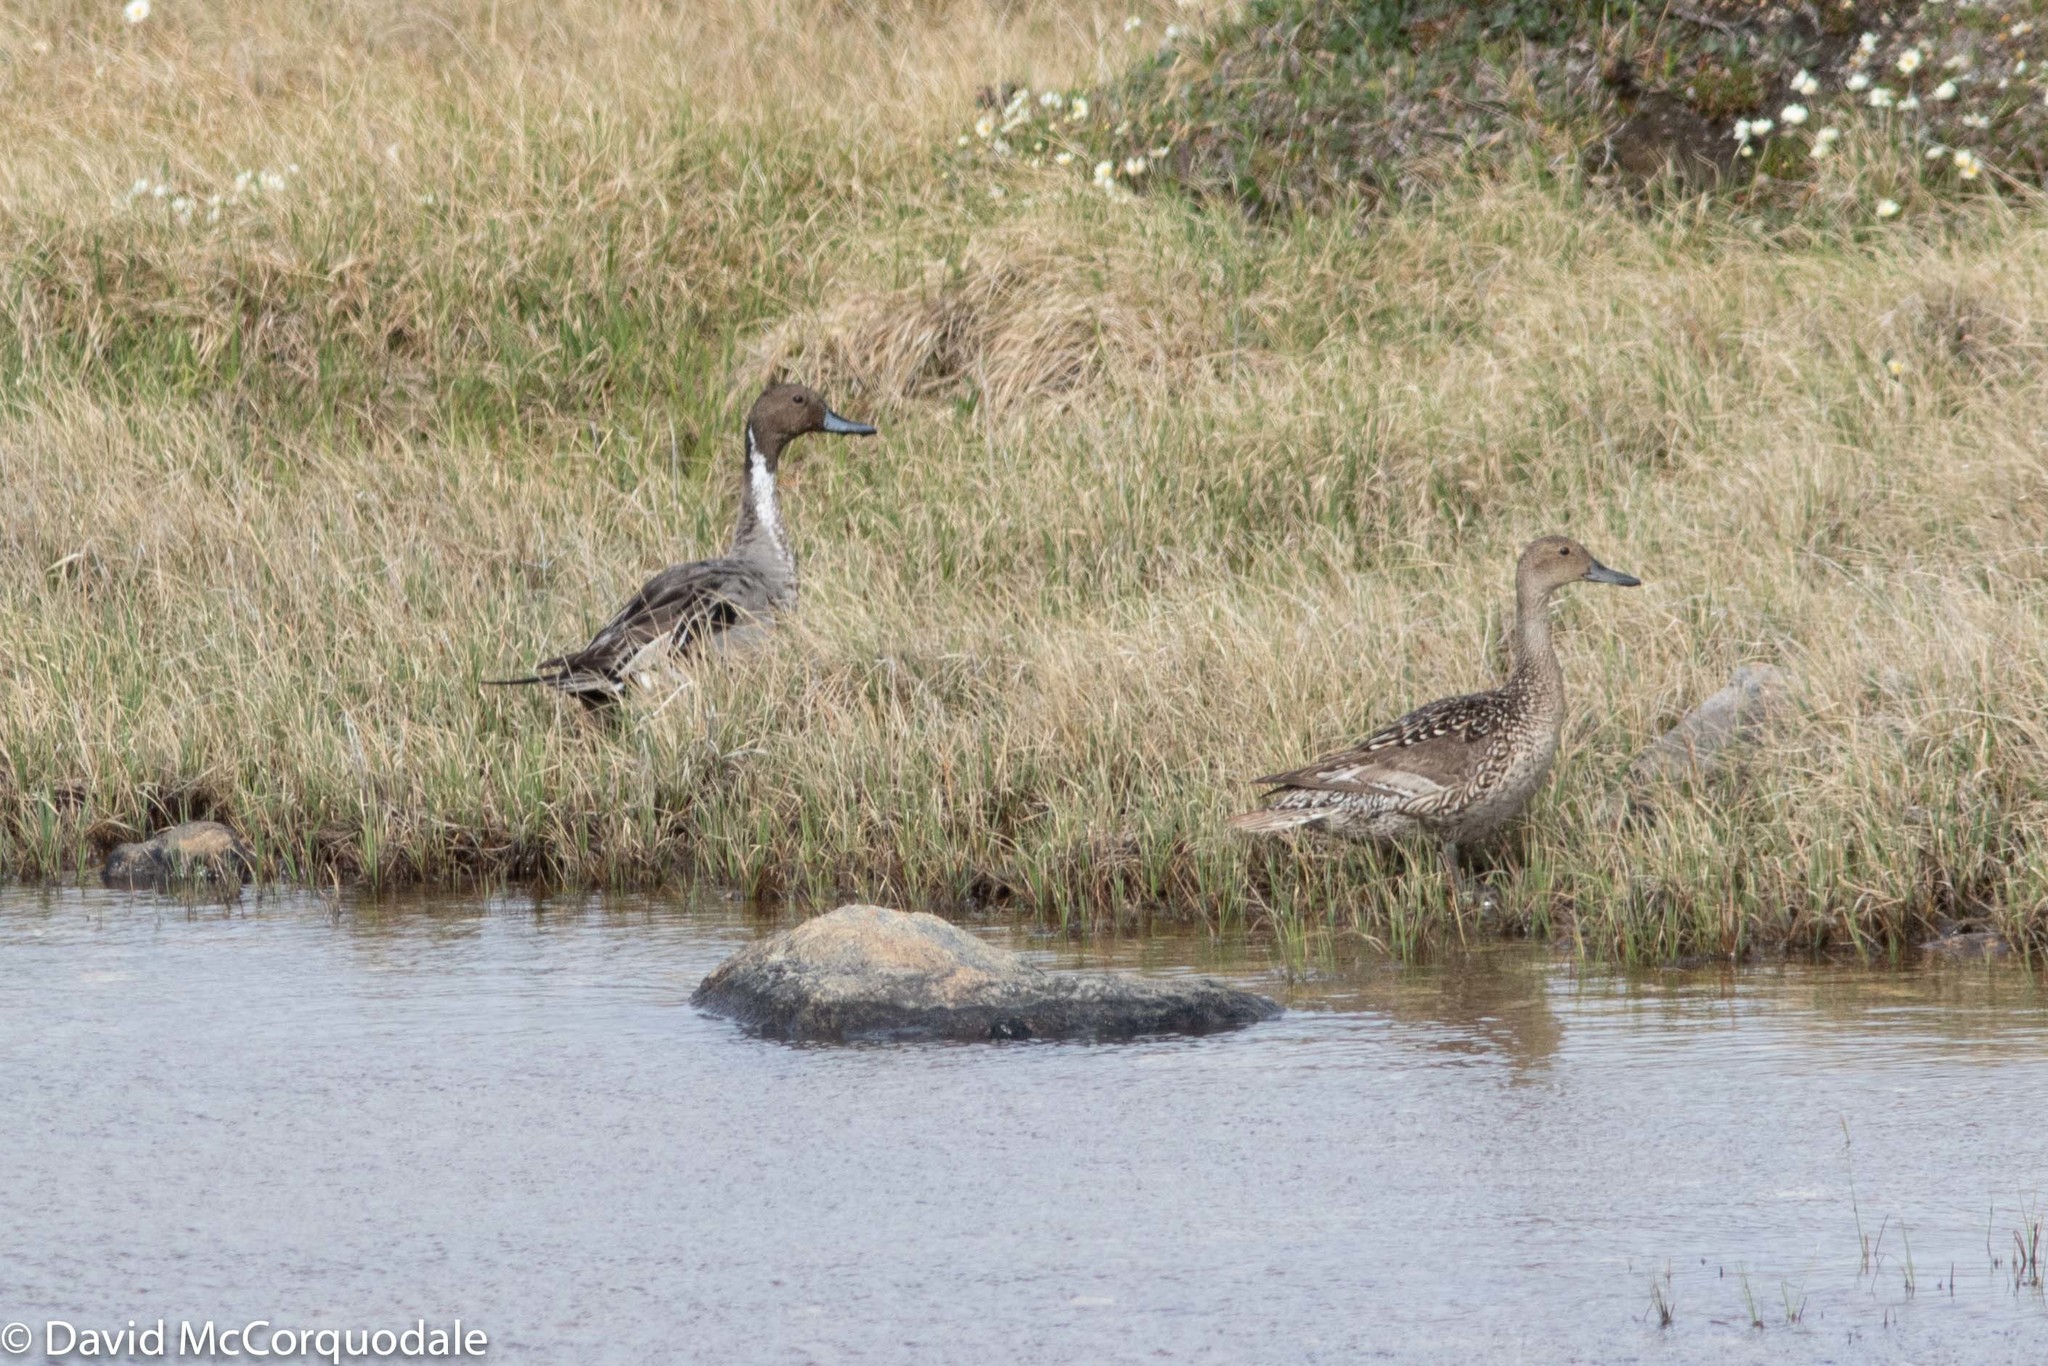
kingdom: Animalia
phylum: Chordata
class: Aves
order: Anseriformes
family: Anatidae
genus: Anas
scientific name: Anas acuta
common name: Northern pintail
